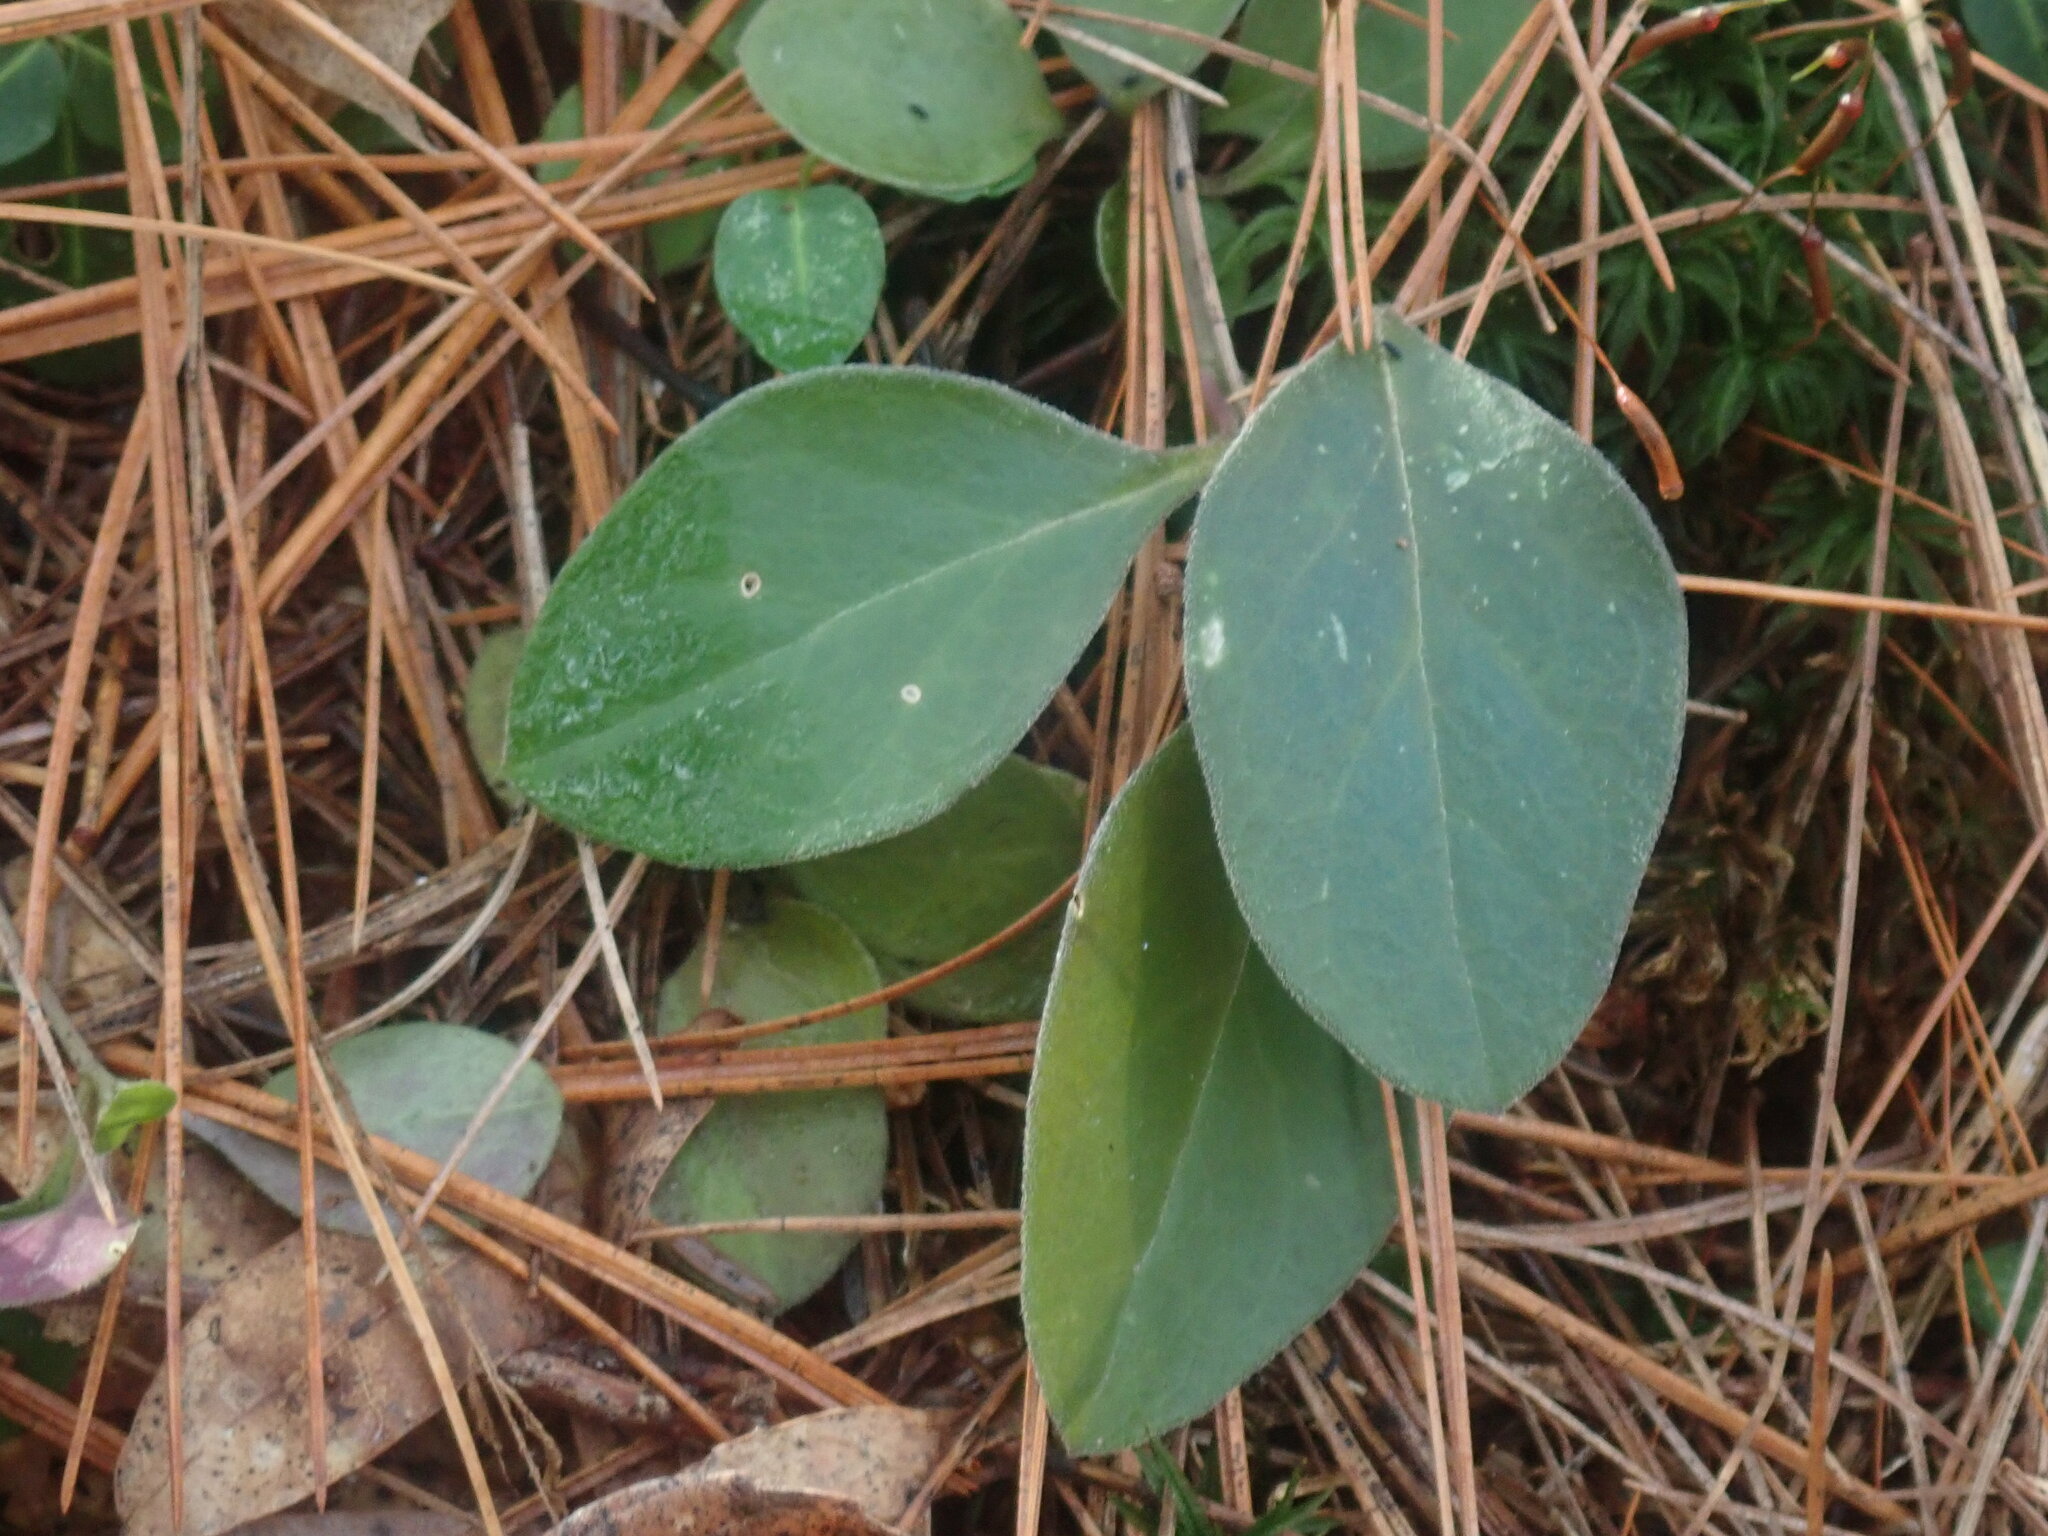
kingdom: Plantae
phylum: Tracheophyta
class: Magnoliopsida
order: Fabales
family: Polygalaceae
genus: Polygaloides
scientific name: Polygaloides paucifolia
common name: Bird-on-the-wing
